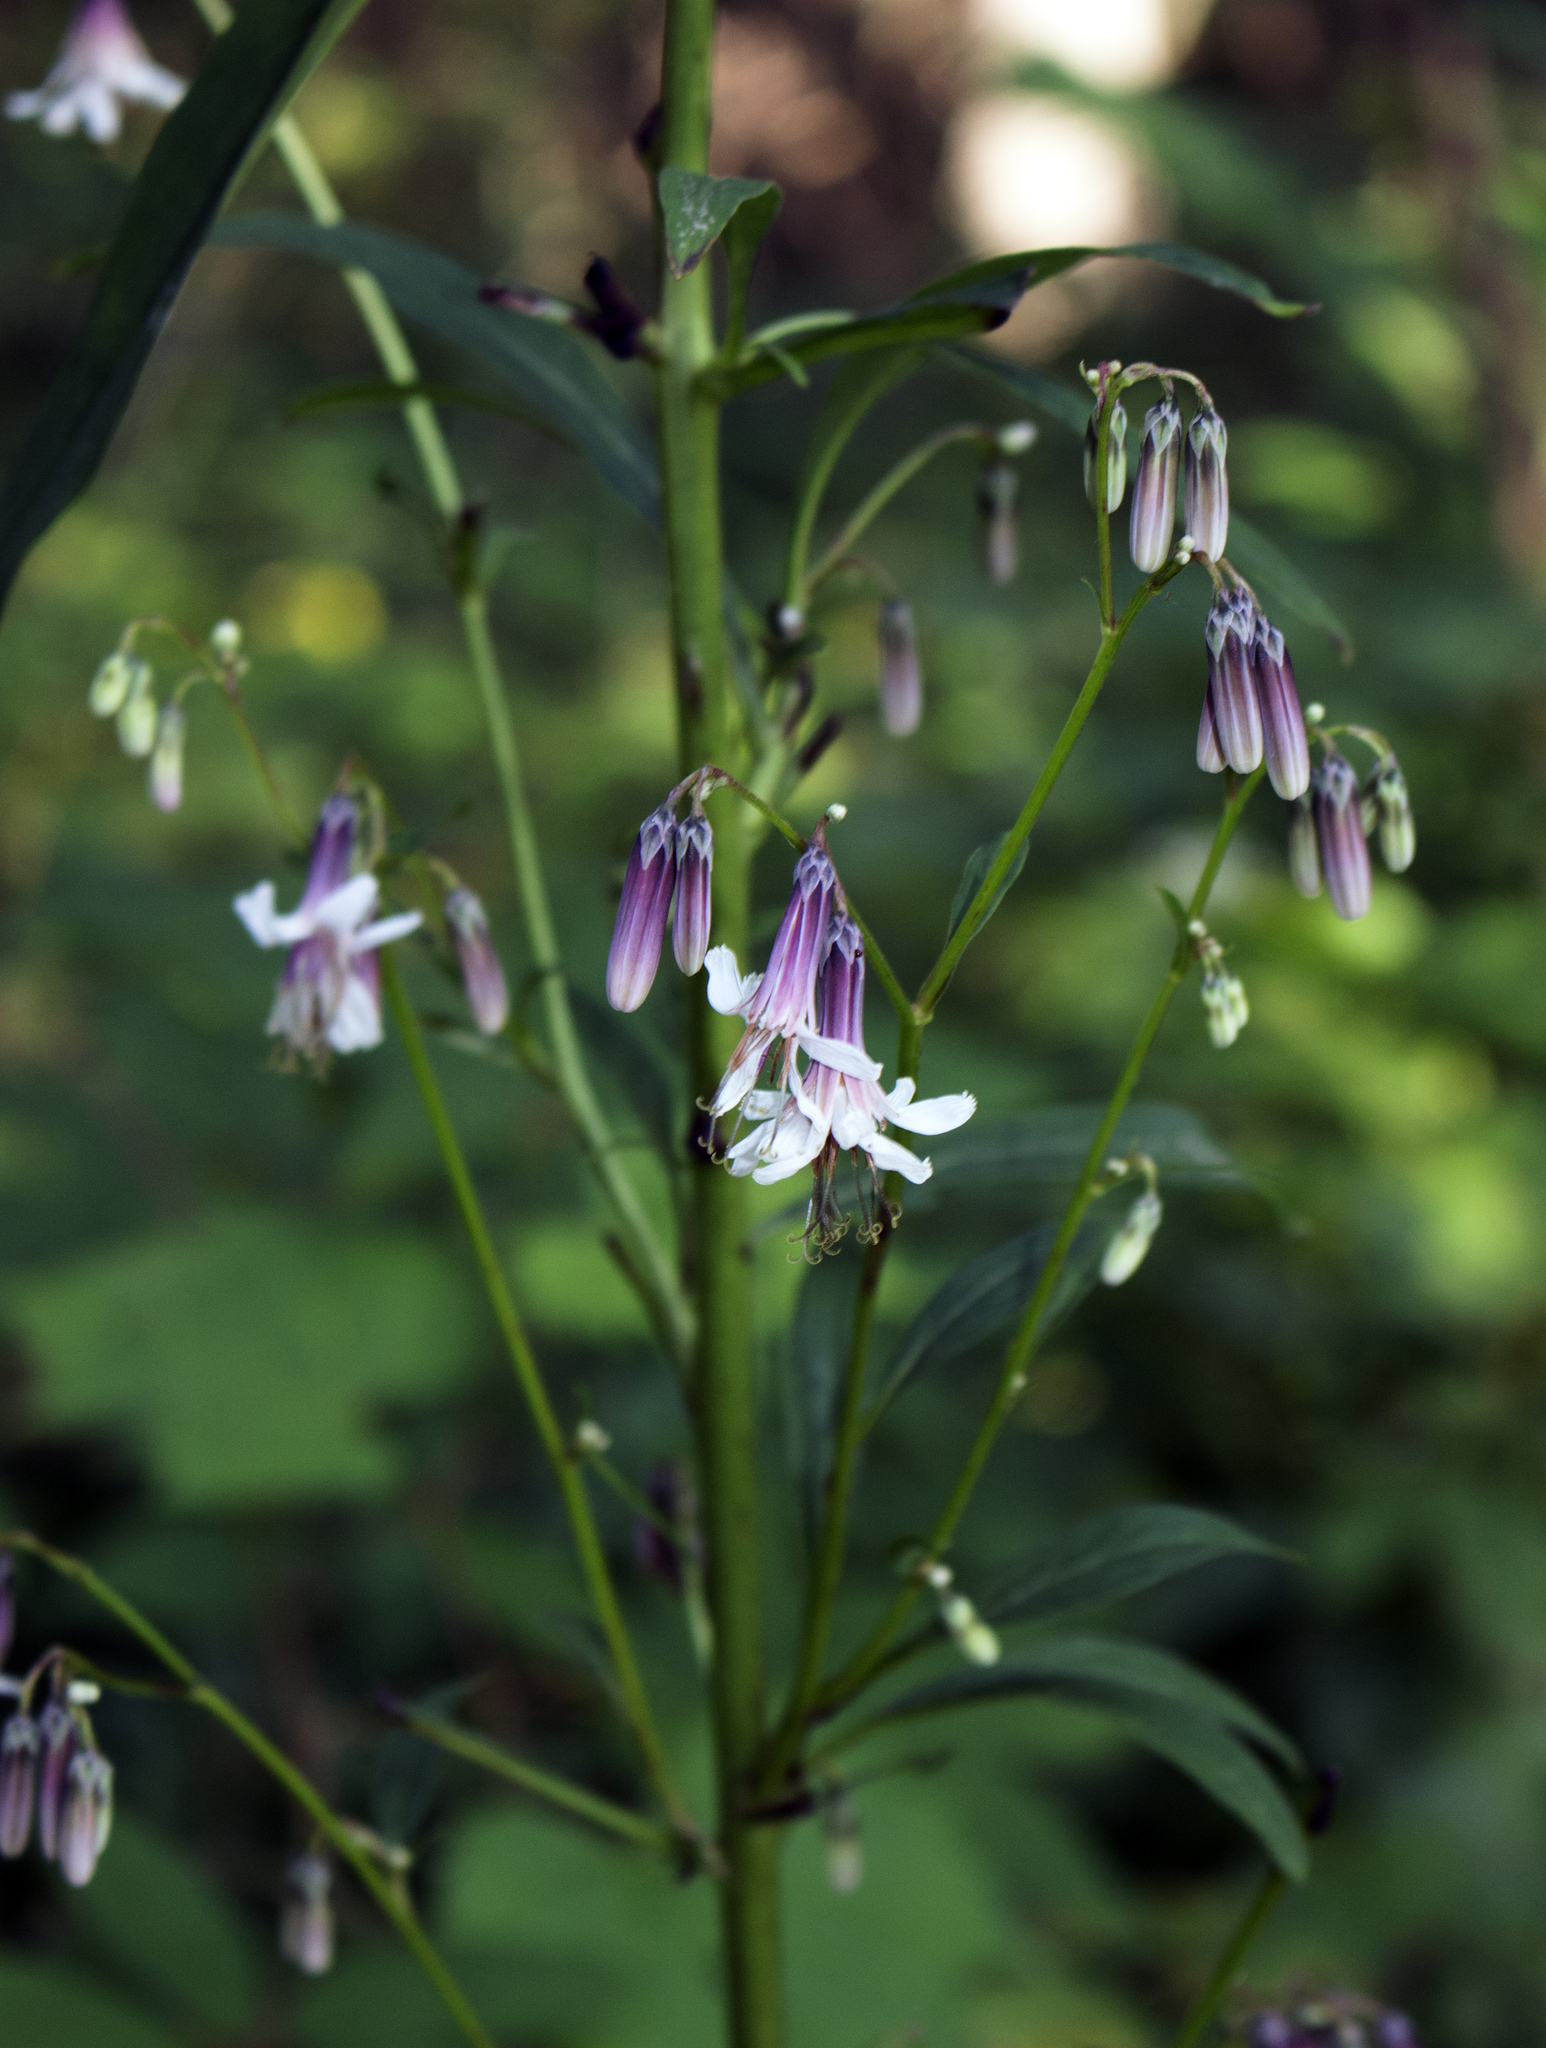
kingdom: Plantae
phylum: Tracheophyta
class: Magnoliopsida
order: Asterales
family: Asteraceae
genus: Nabalus
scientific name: Nabalus albus
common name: White rattlesnakeroot
